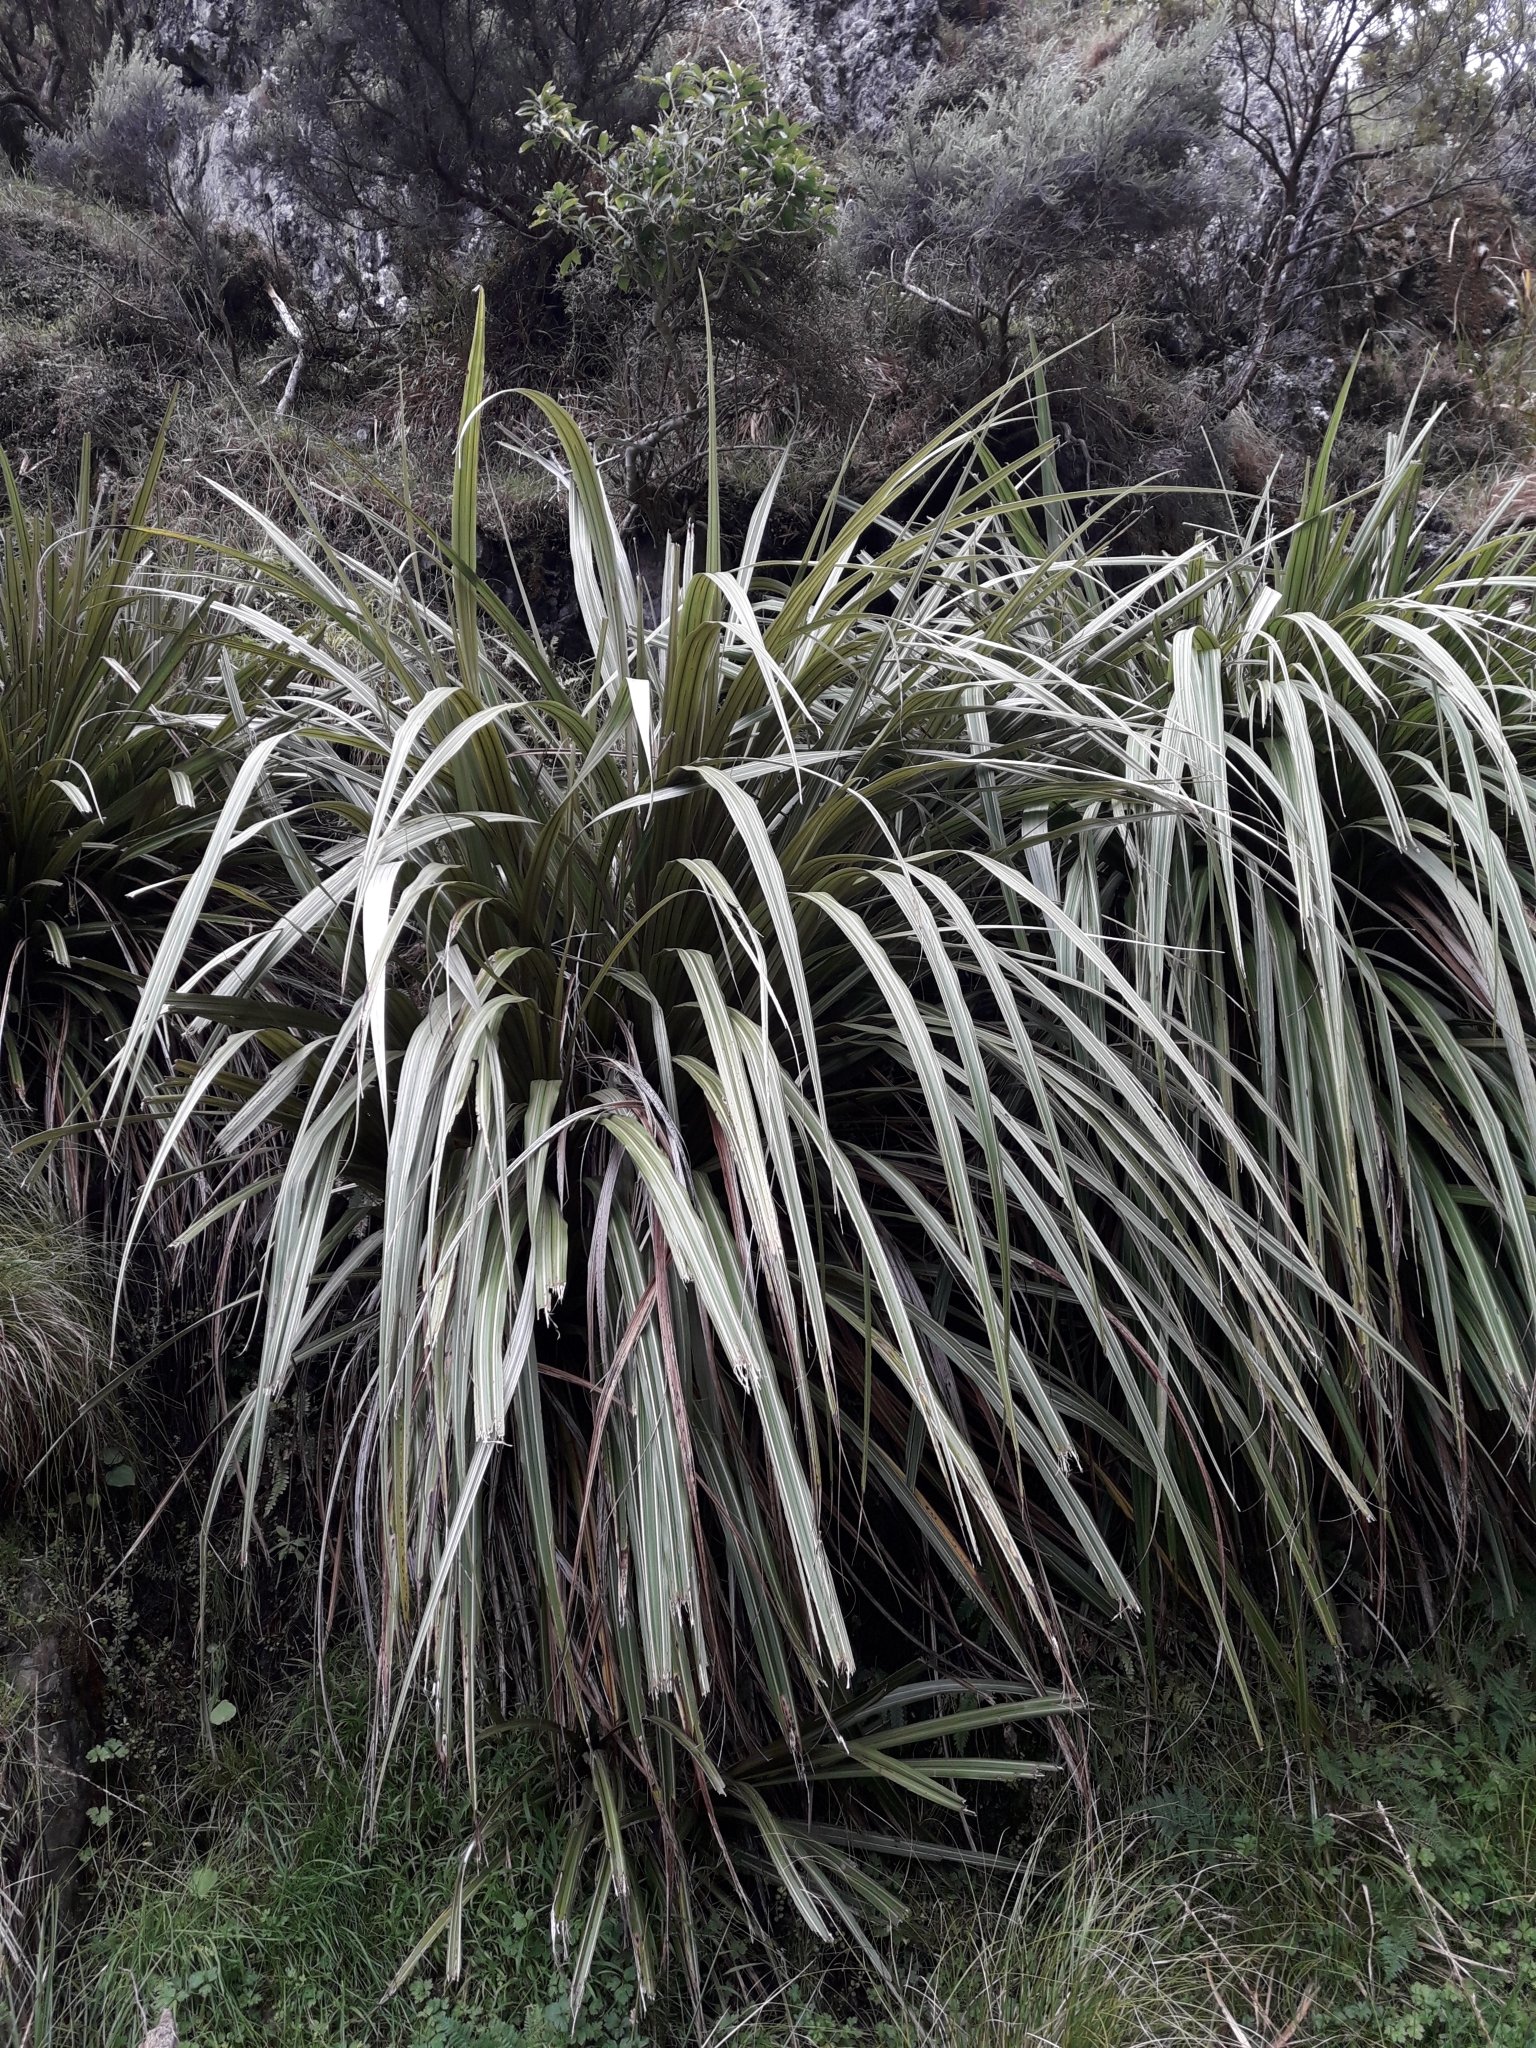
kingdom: Plantae
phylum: Tracheophyta
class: Liliopsida
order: Asparagales
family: Asteliaceae
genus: Astelia
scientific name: Astelia fragrans
